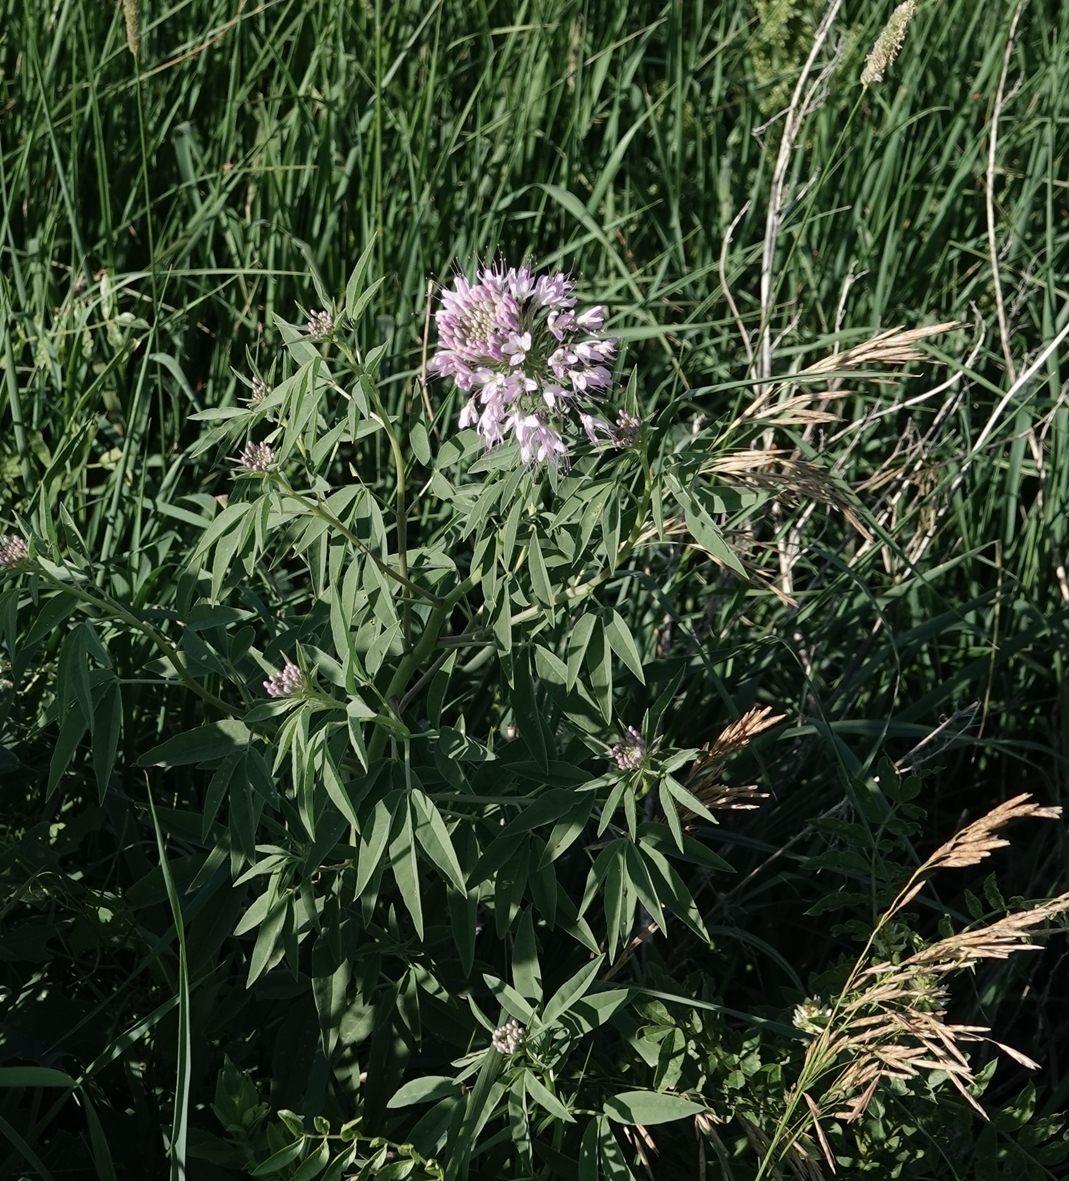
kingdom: Plantae
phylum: Tracheophyta
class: Magnoliopsida
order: Brassicales
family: Cleomaceae
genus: Cleomella
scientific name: Cleomella serrulata
